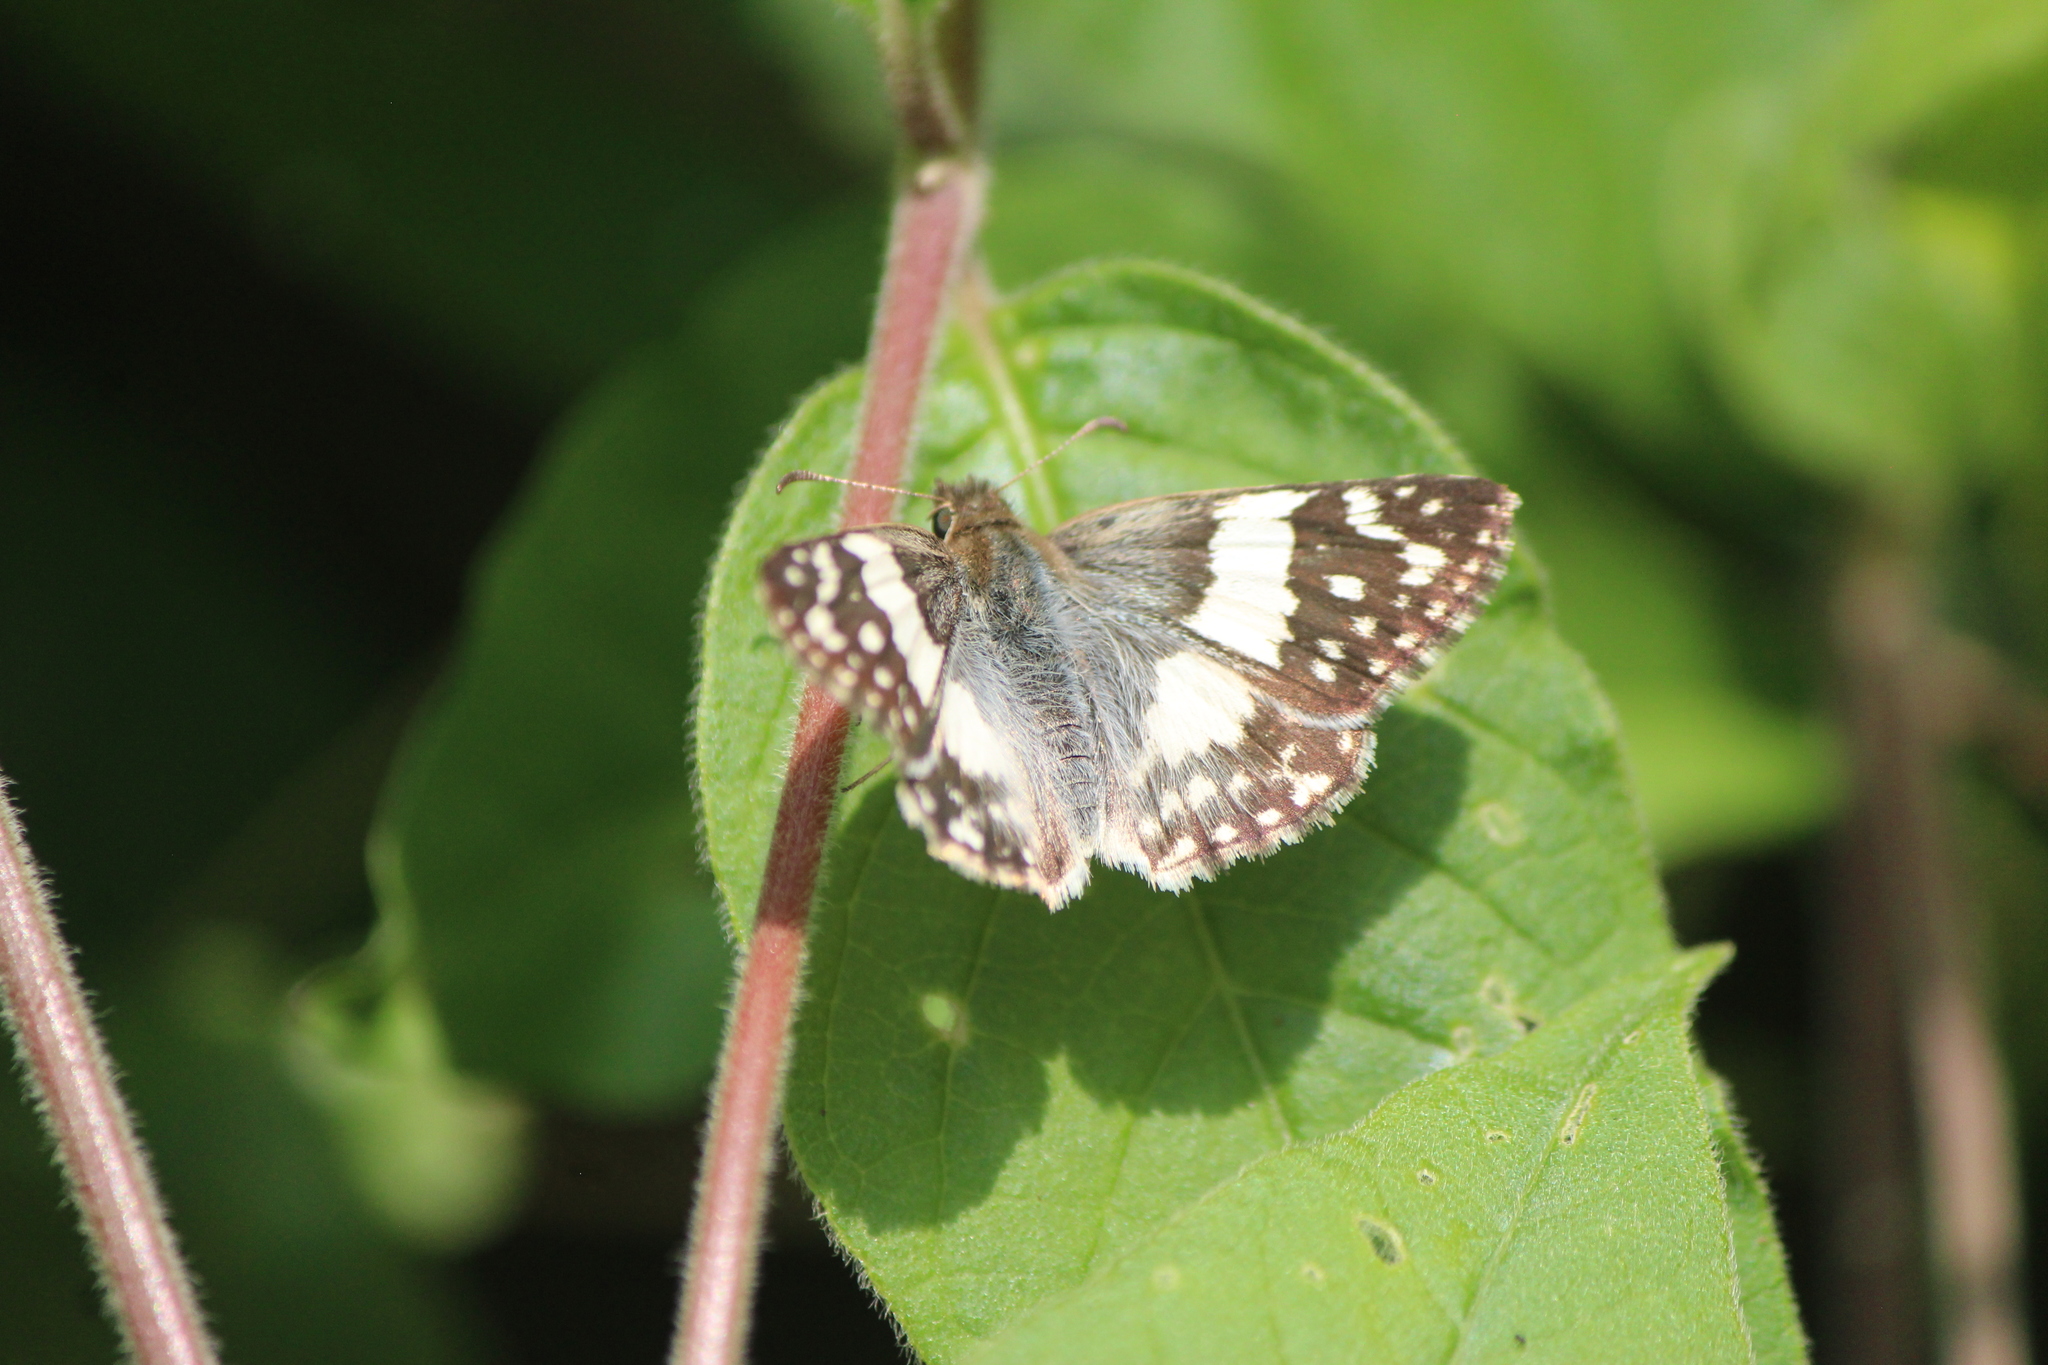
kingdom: Animalia
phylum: Arthropoda
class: Insecta
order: Lepidoptera
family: Hesperiidae
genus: Heliopyrgus
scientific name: Heliopyrgus domicella
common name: Erichson's white skipper
